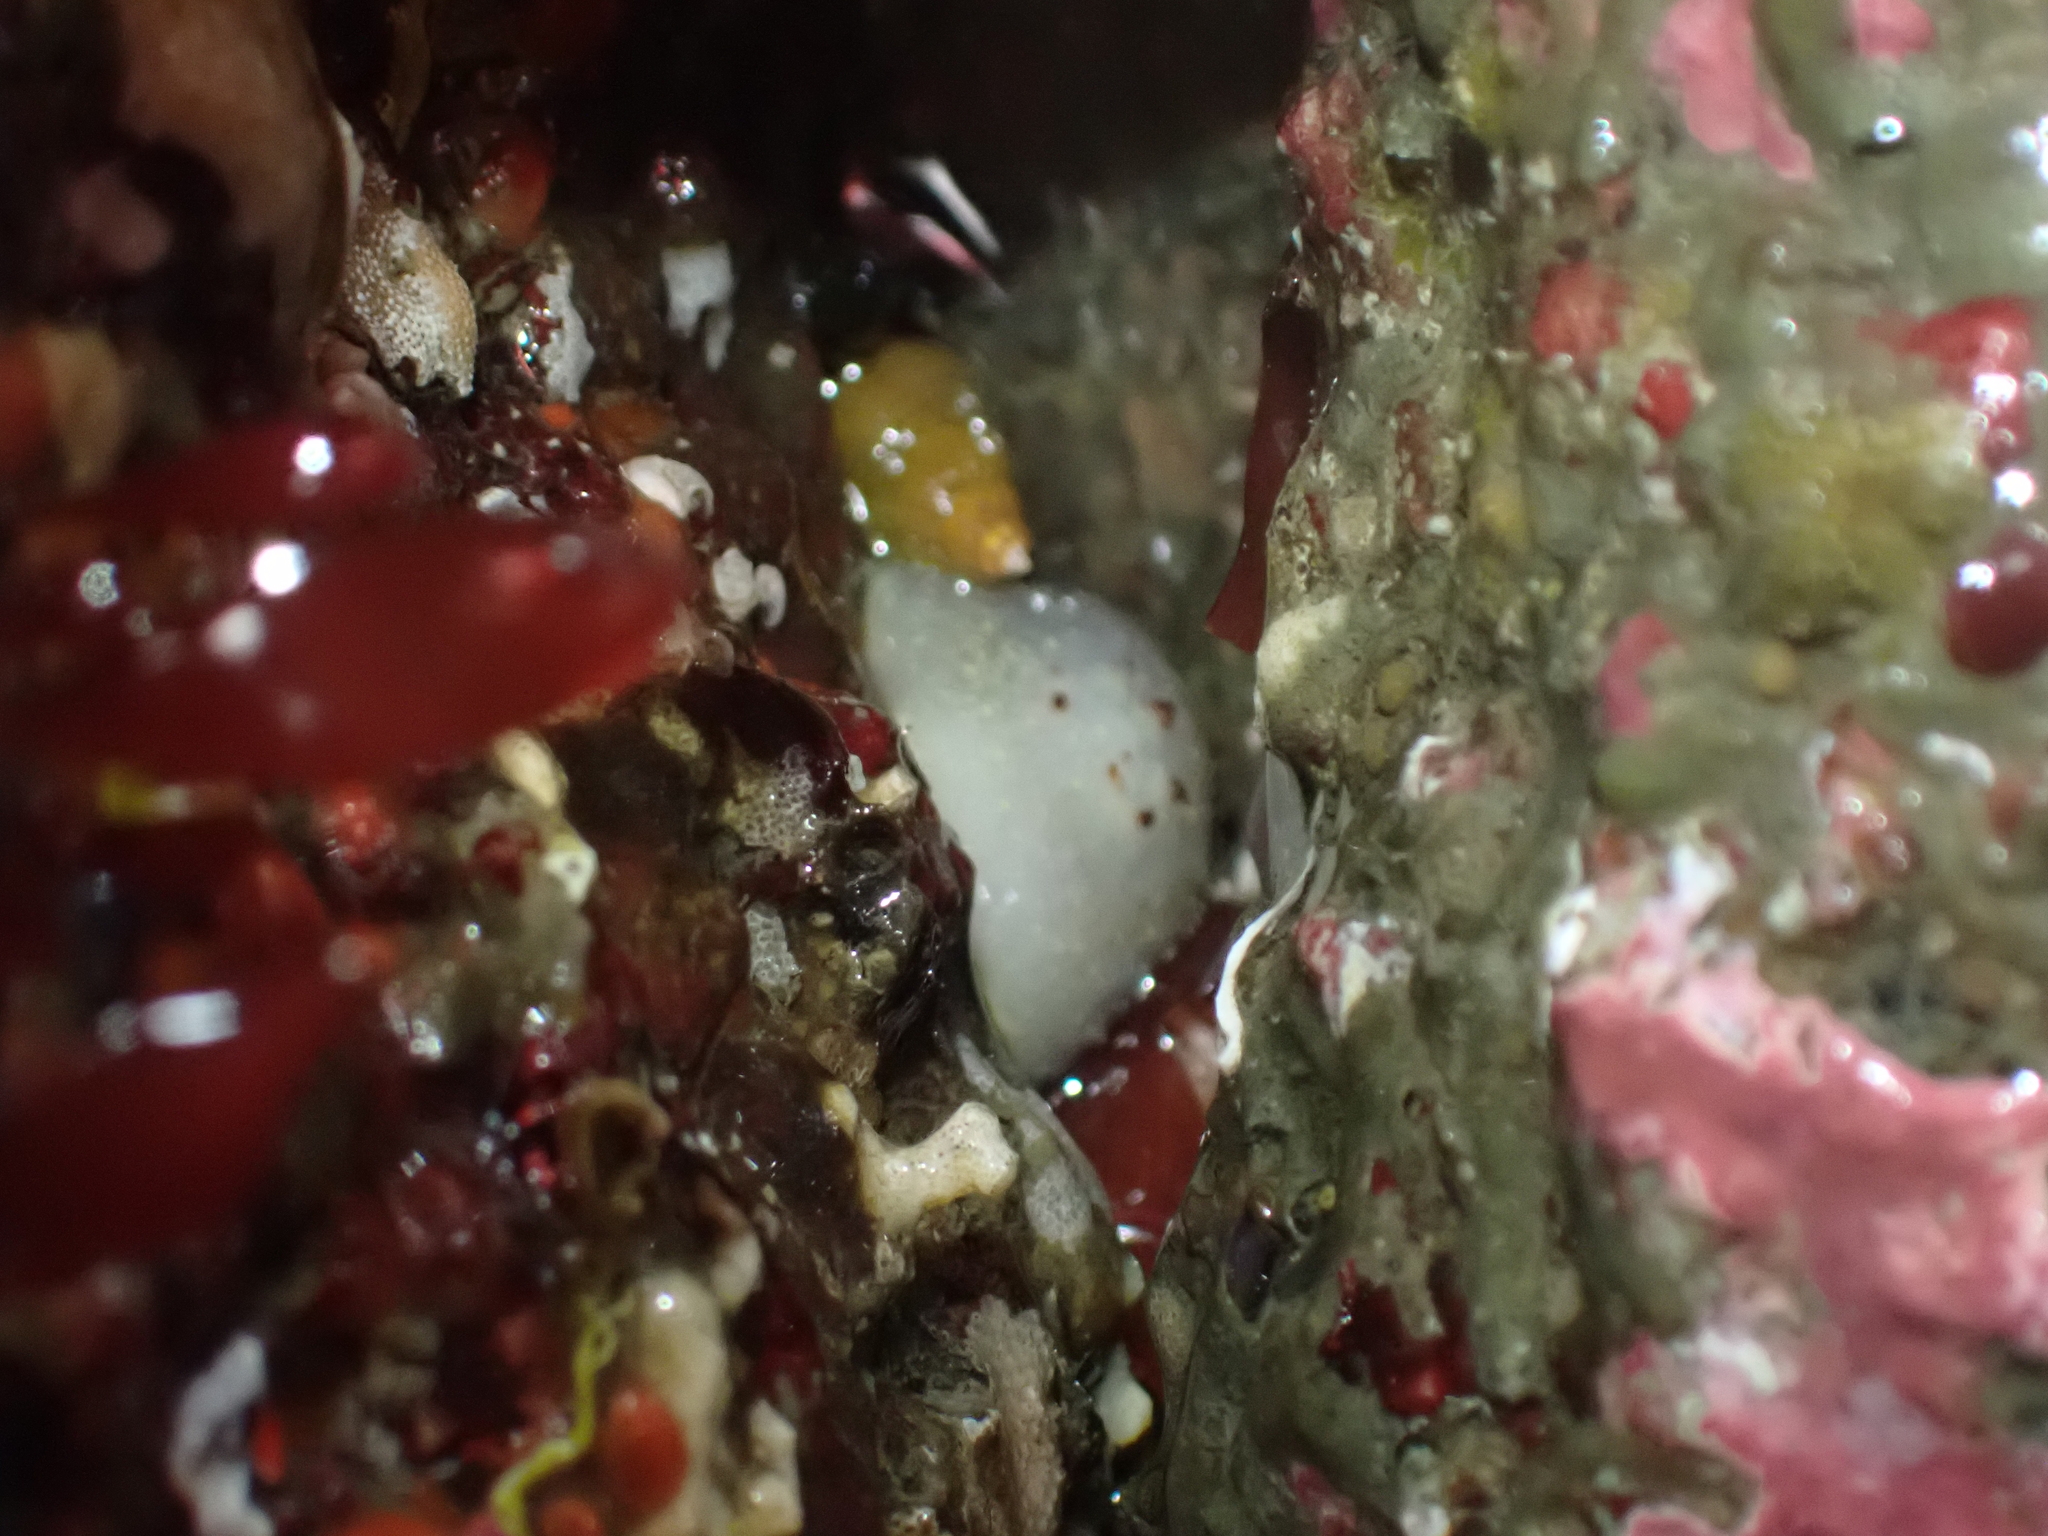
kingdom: Animalia
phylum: Mollusca
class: Gastropoda
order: Nudibranchia
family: Onchidorididae
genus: Acanthodoris
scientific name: Acanthodoris nanaimoensis
